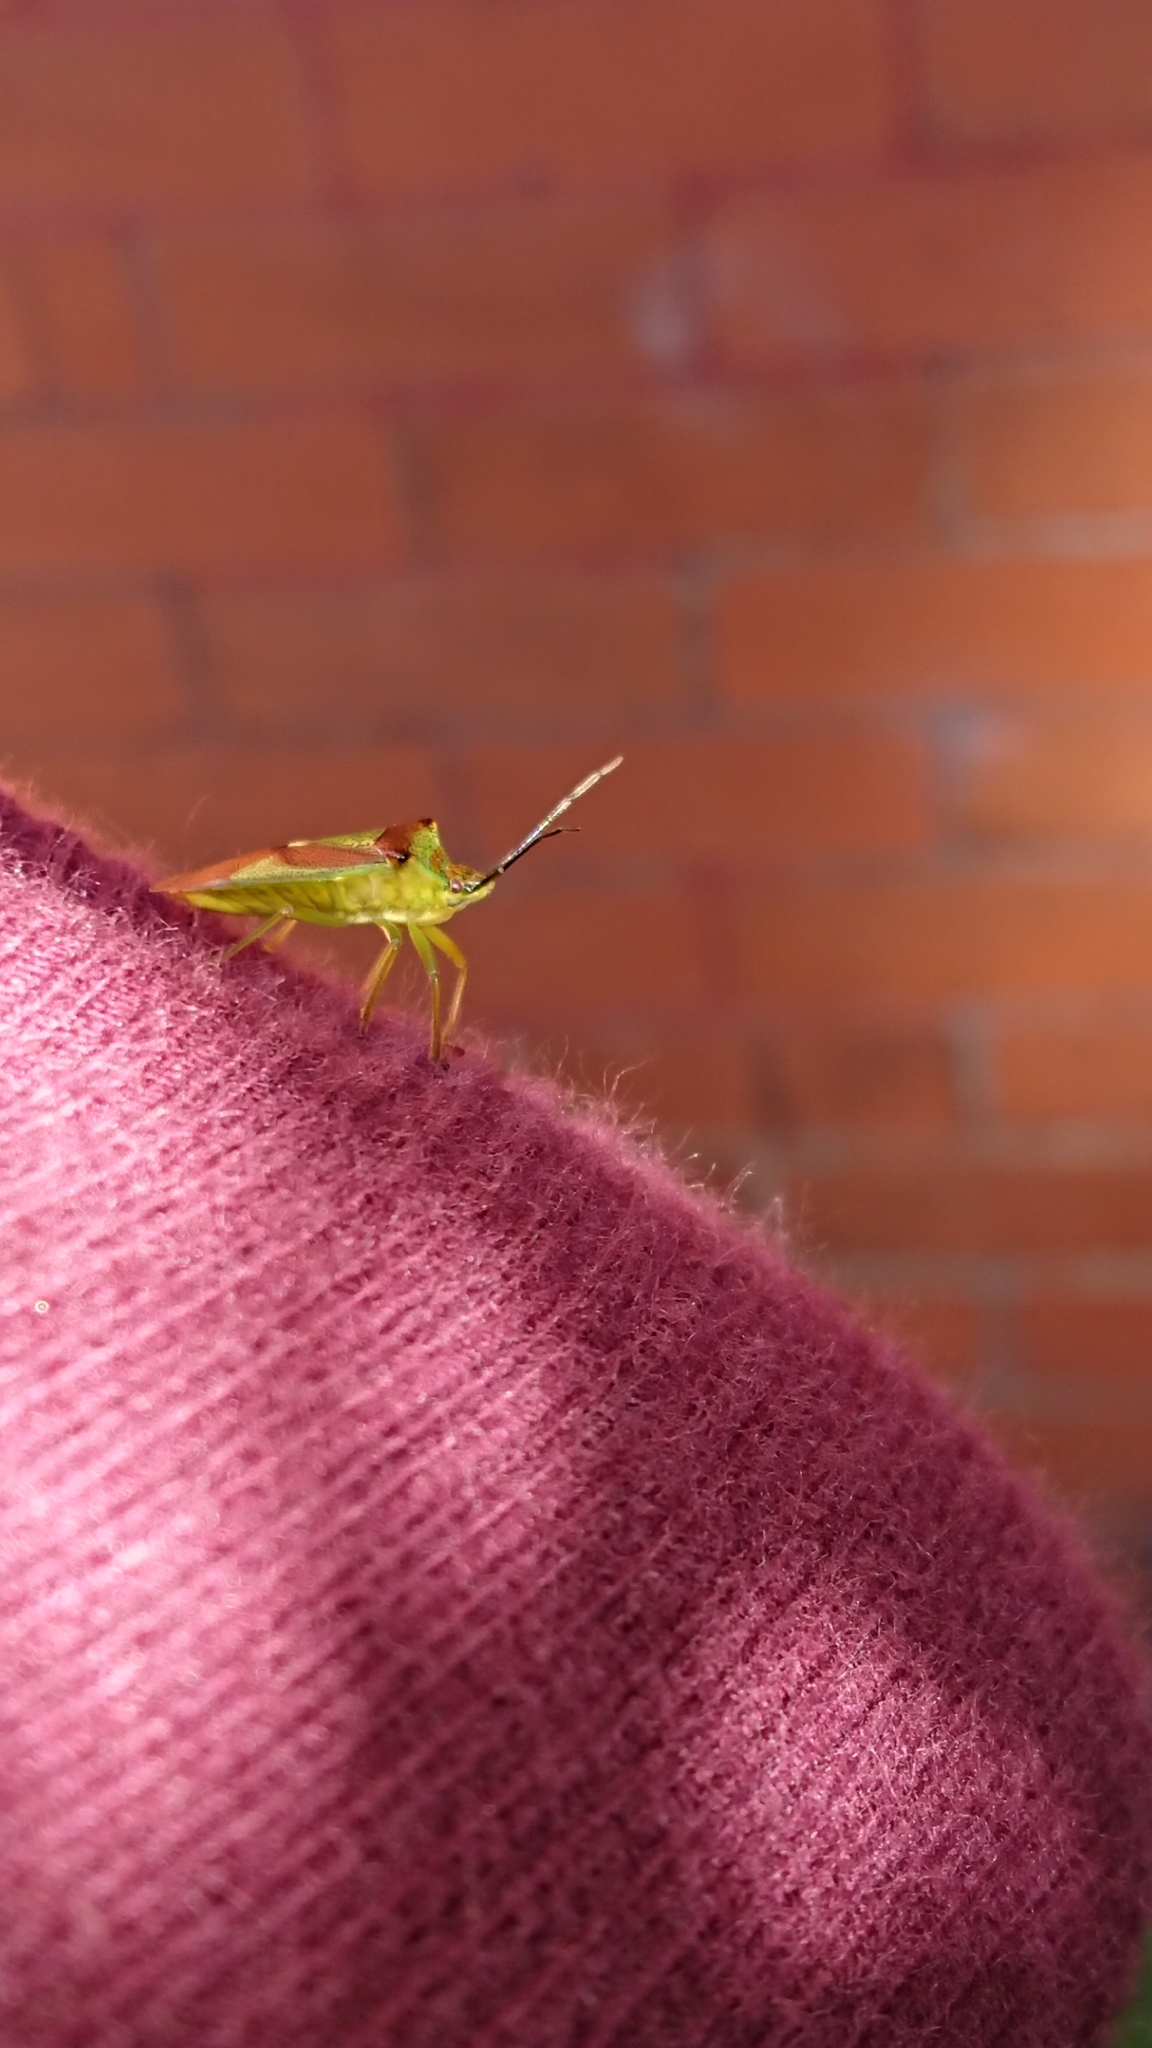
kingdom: Animalia
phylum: Arthropoda
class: Insecta
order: Hemiptera
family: Acanthosomatidae
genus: Acanthosoma
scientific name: Acanthosoma haemorrhoidale
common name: Hawthorn shieldbug
